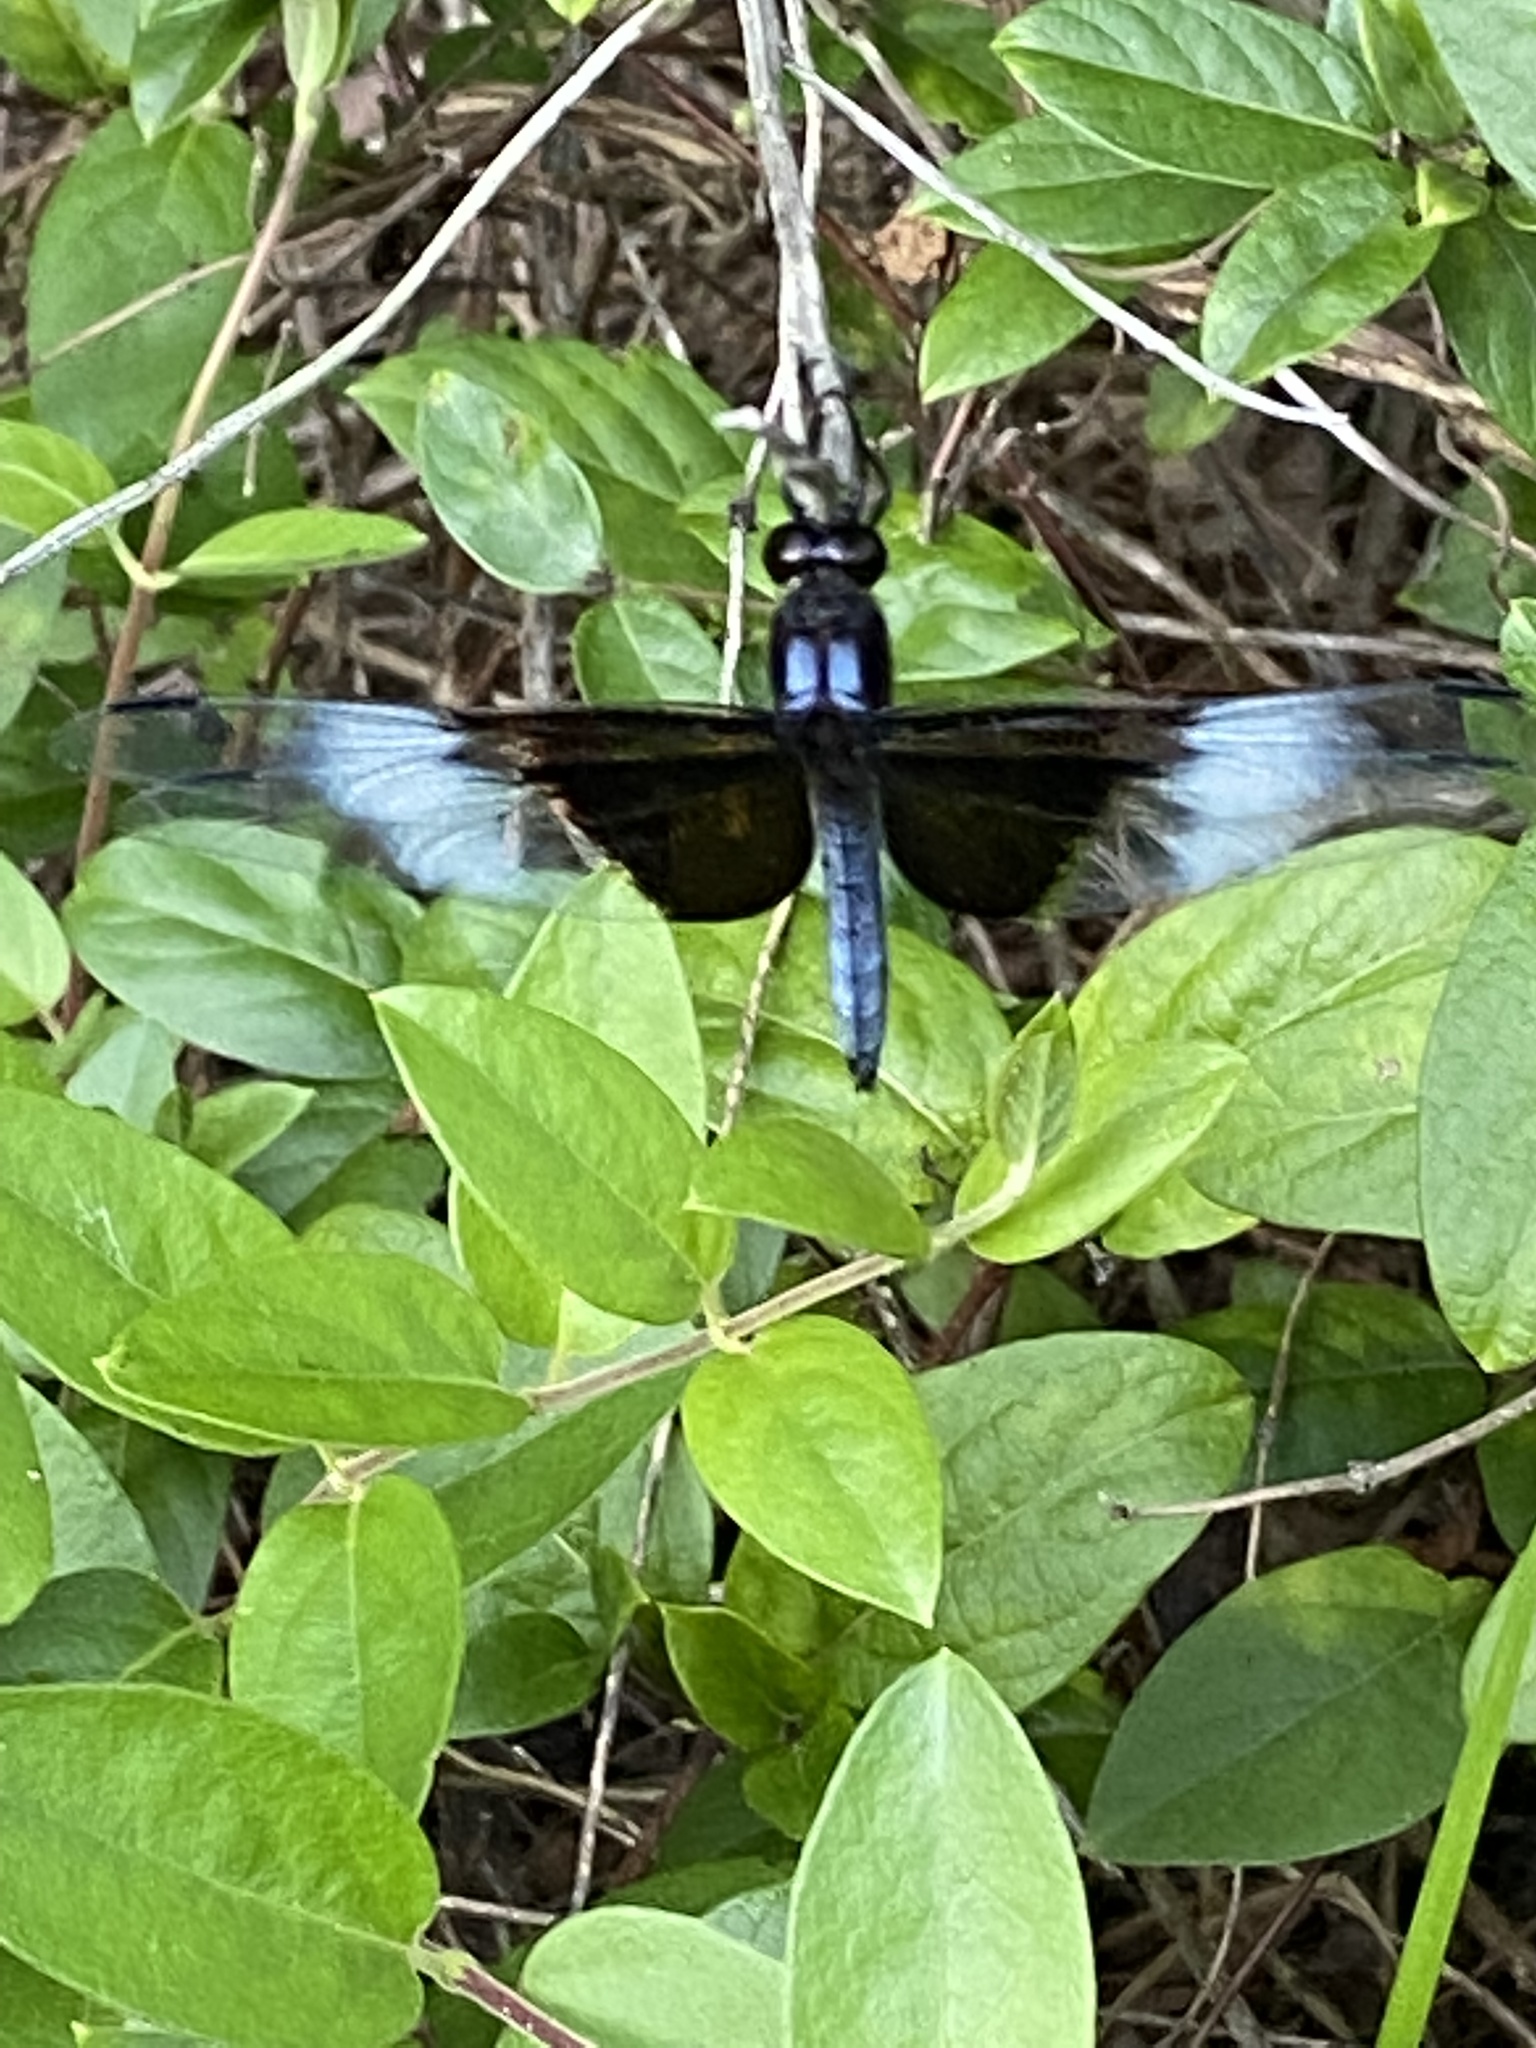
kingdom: Animalia
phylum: Arthropoda
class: Insecta
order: Odonata
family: Libellulidae
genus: Libellula
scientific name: Libellula luctuosa
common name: Widow skimmer
